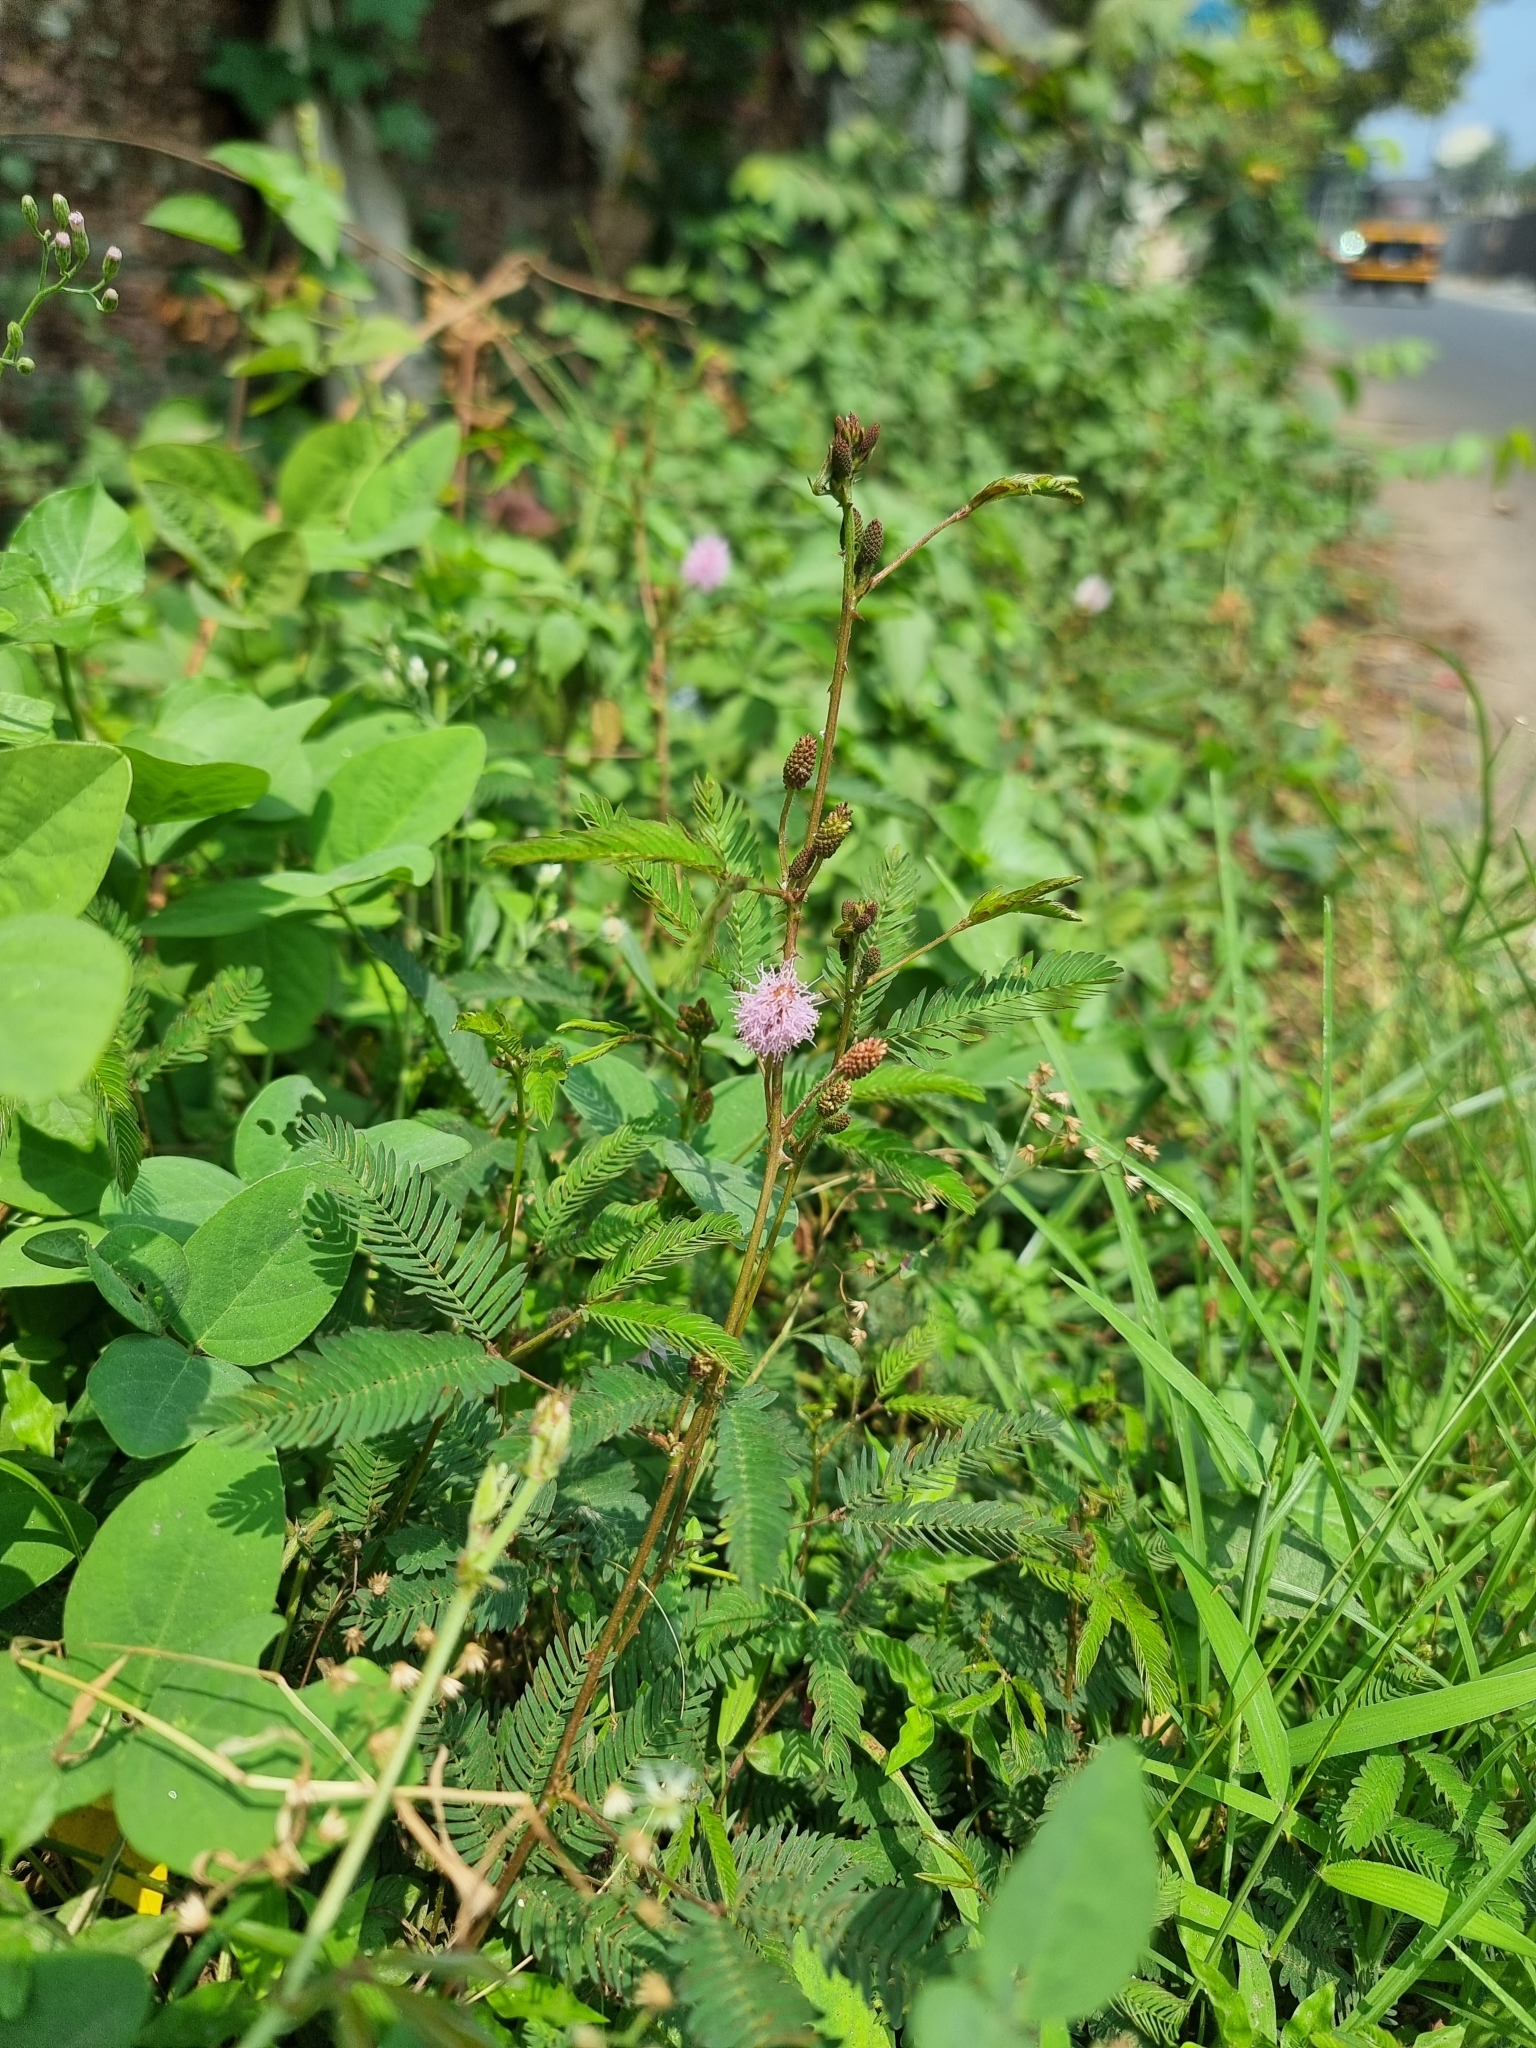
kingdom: Plantae
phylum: Tracheophyta
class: Magnoliopsida
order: Fabales
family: Fabaceae
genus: Mimosa
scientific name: Mimosa pudica
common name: Sensitive plant
